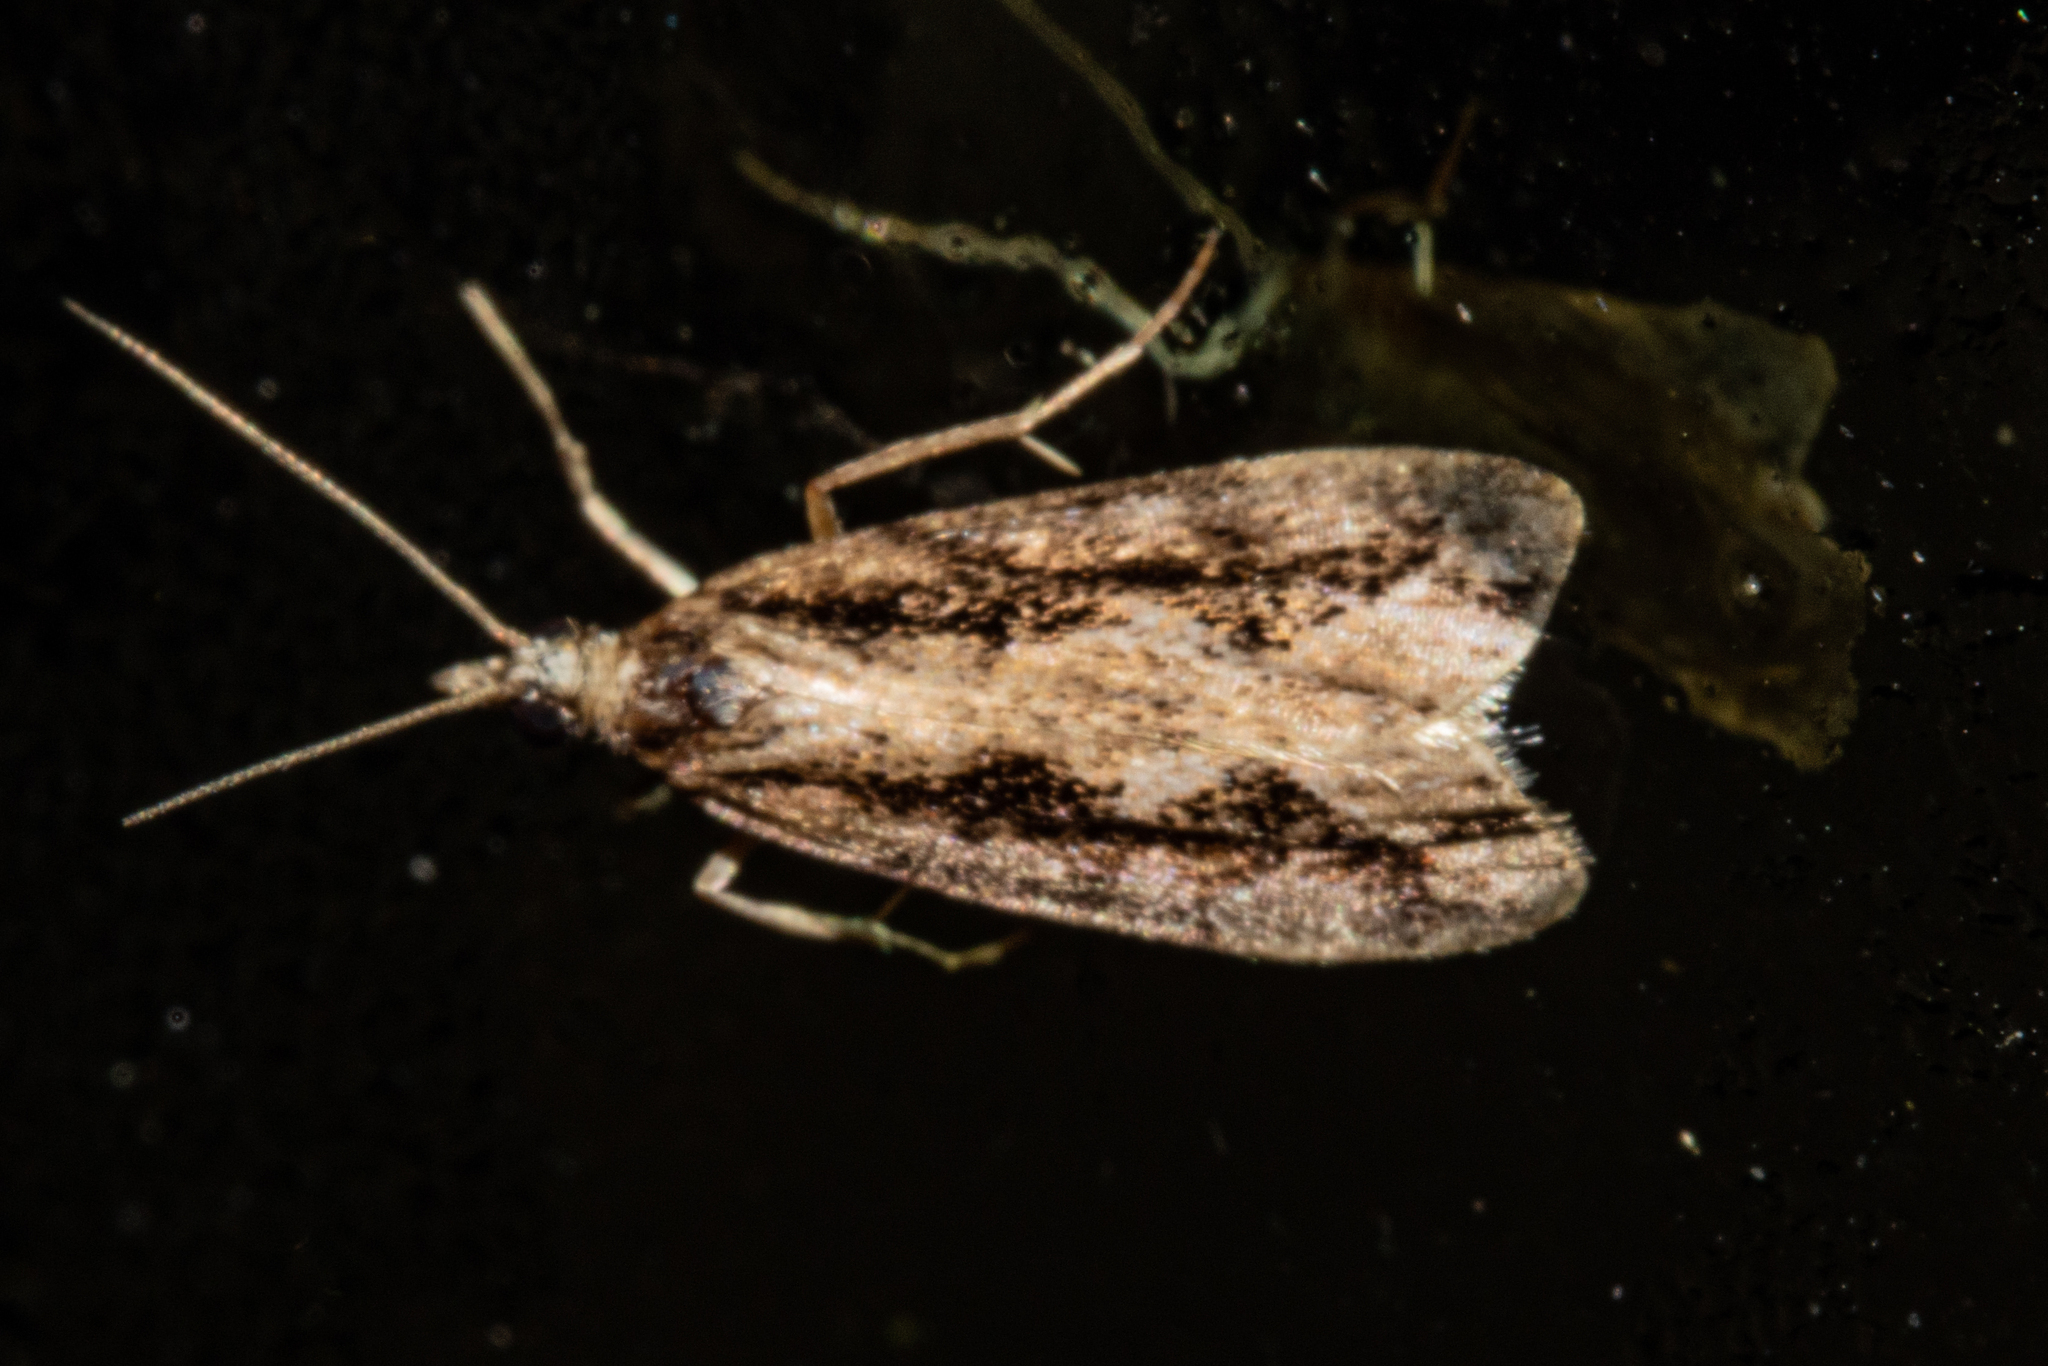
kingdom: Animalia
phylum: Arthropoda
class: Insecta
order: Lepidoptera
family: Crambidae
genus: Eudonia
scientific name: Eudonia steropaea
